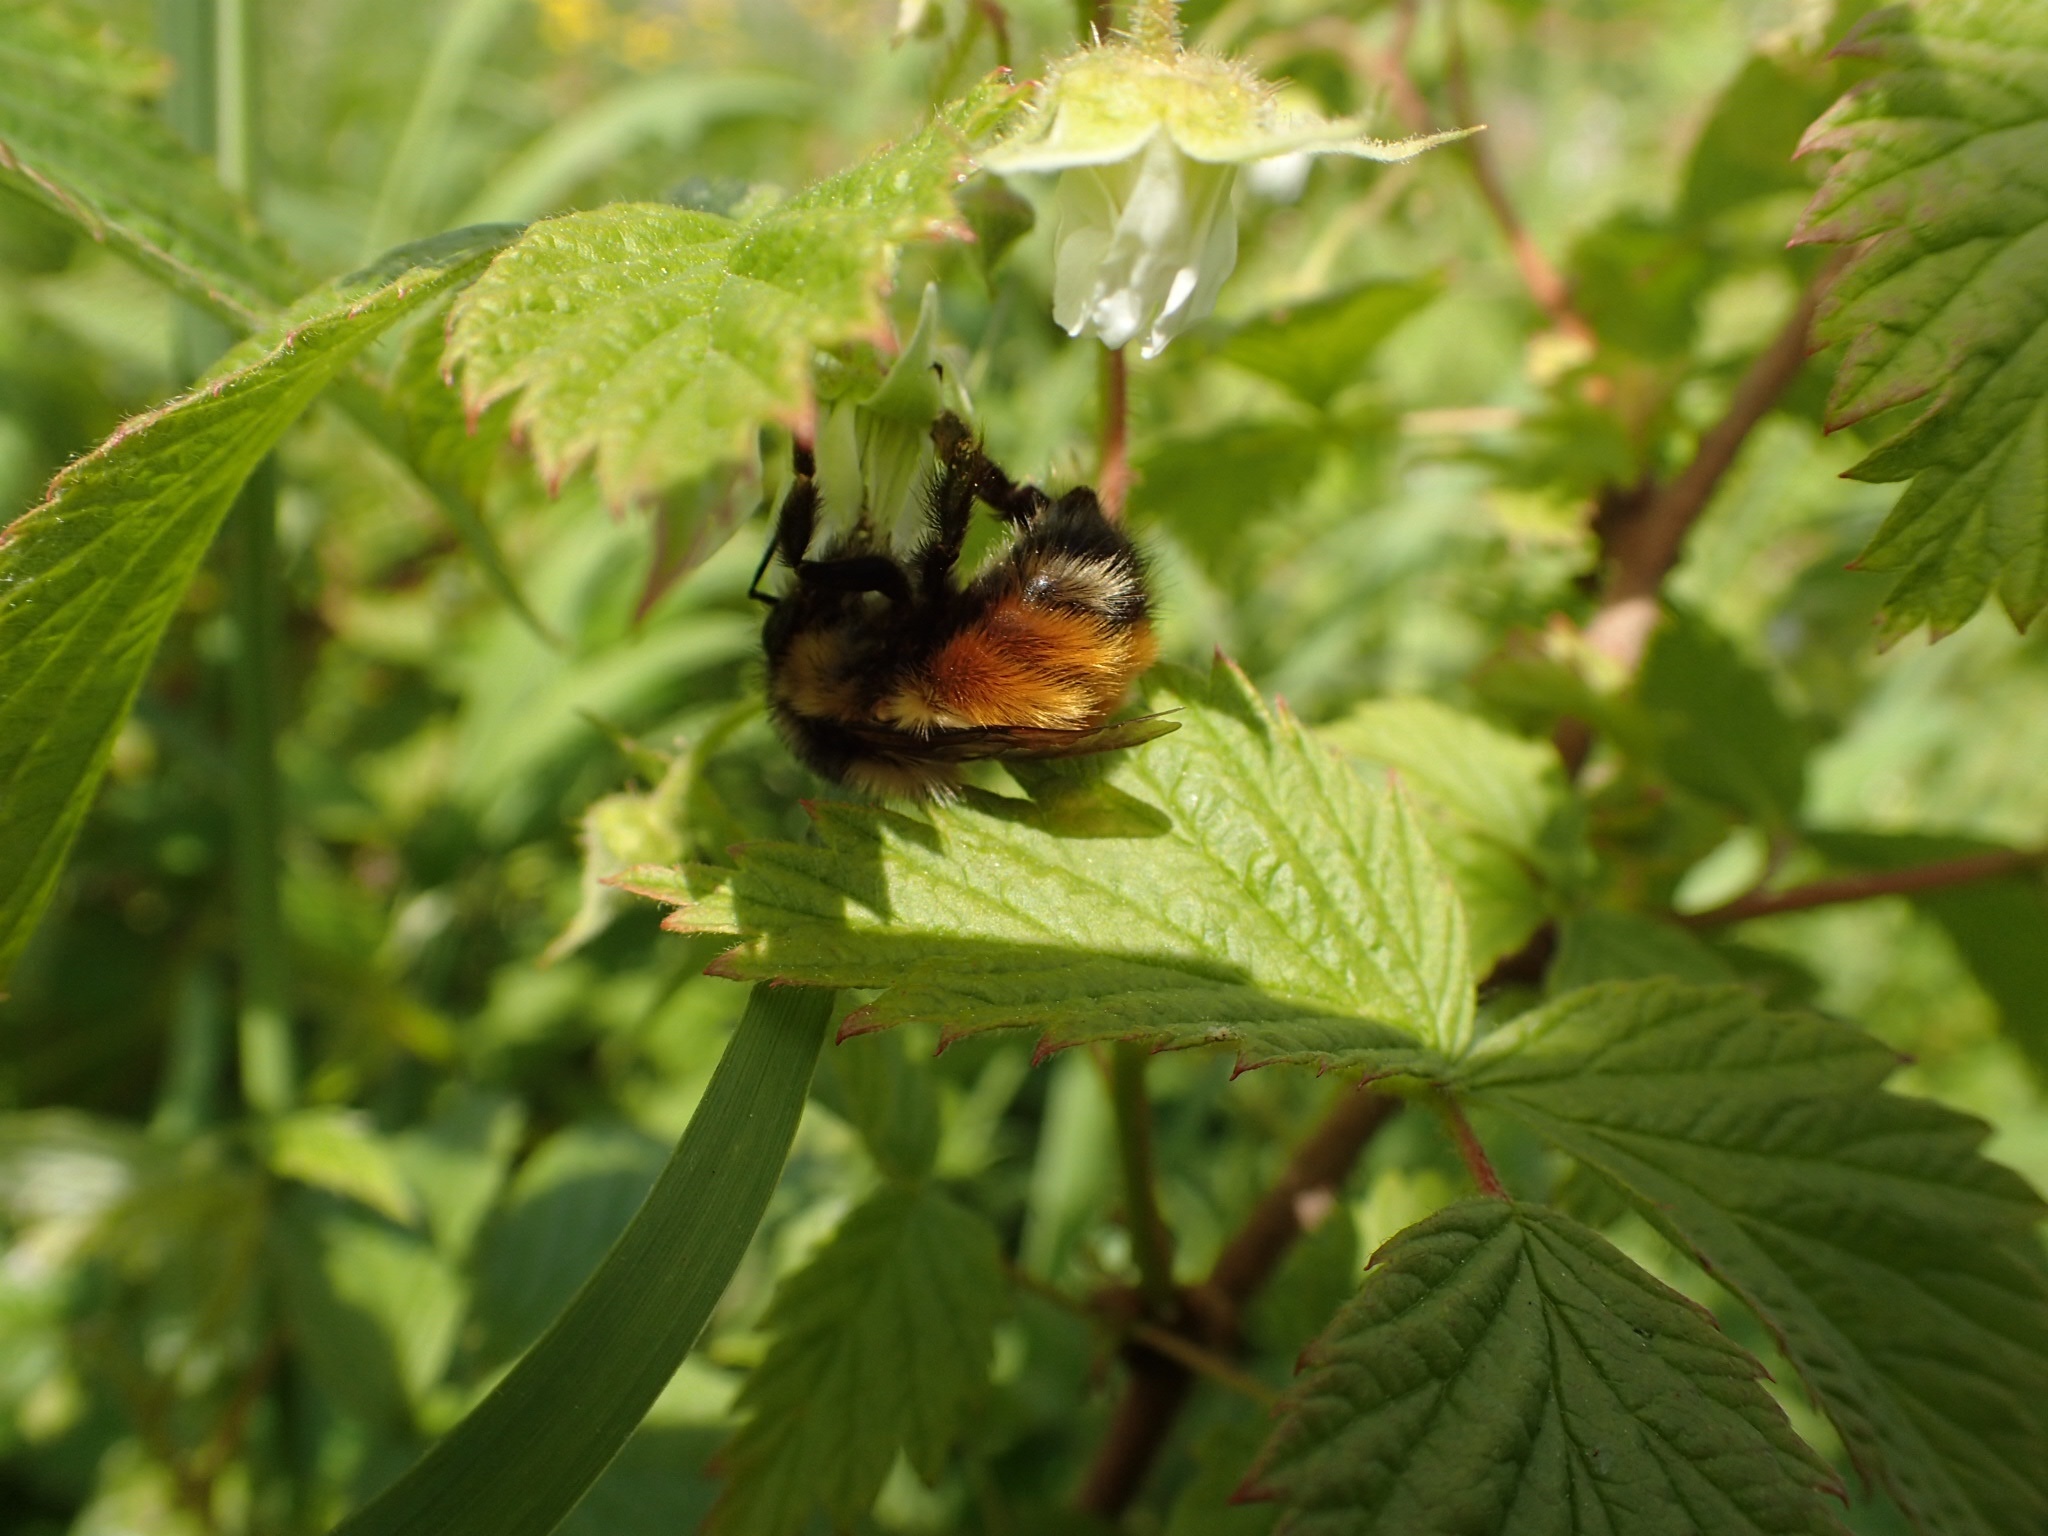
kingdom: Animalia
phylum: Arthropoda
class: Insecta
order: Hymenoptera
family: Apidae
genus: Bombus
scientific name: Bombus melanopygus
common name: Black tail bumble bee
